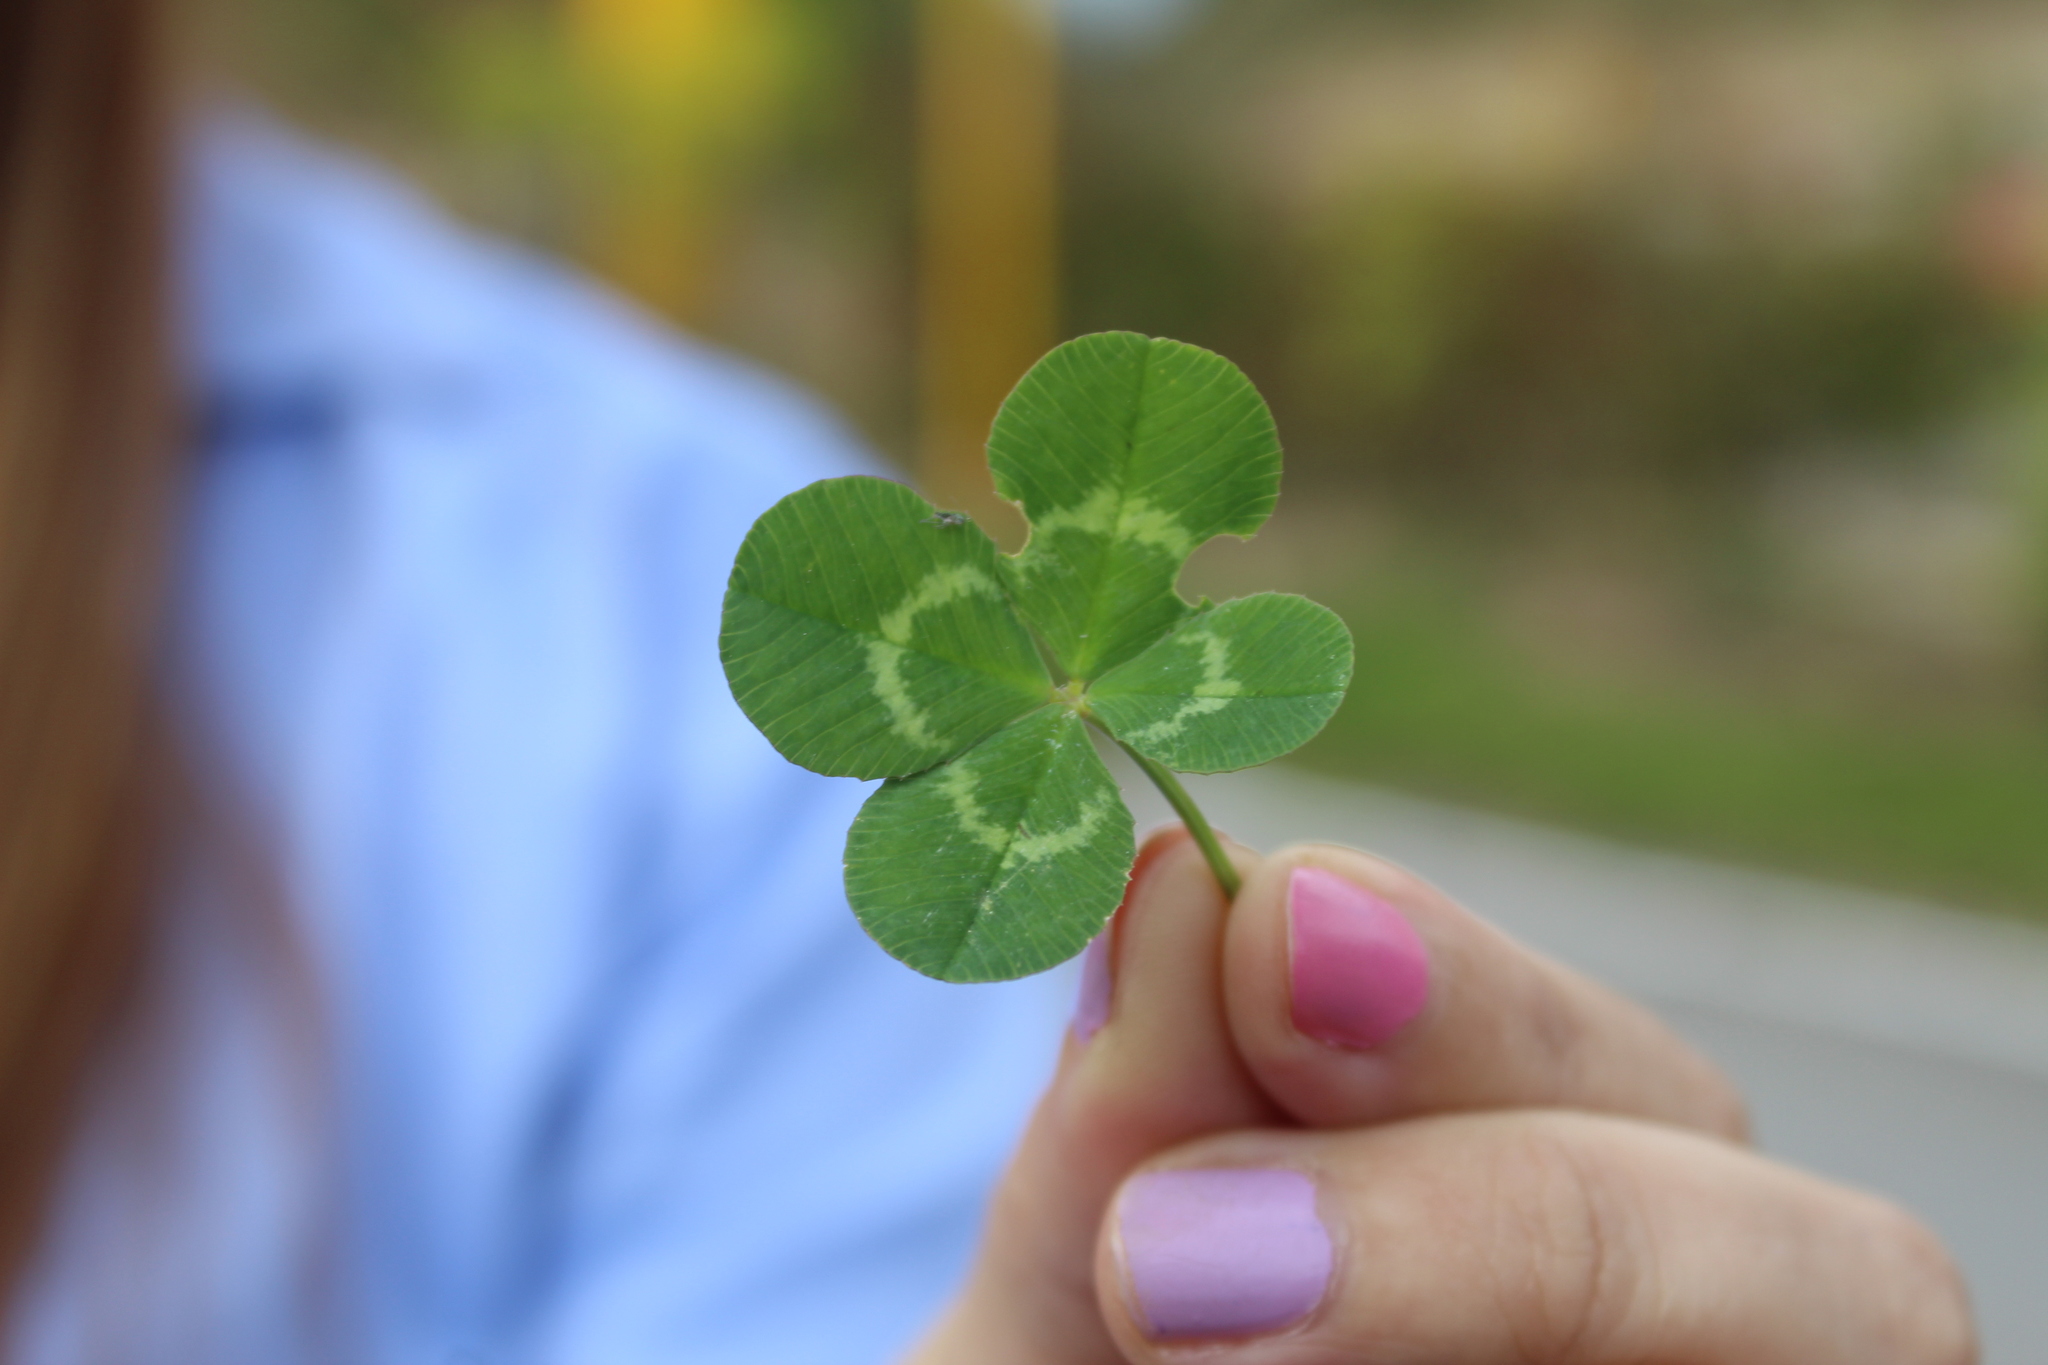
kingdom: Plantae
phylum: Tracheophyta
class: Magnoliopsida
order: Fabales
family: Fabaceae
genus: Trifolium
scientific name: Trifolium repens
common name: White clover
